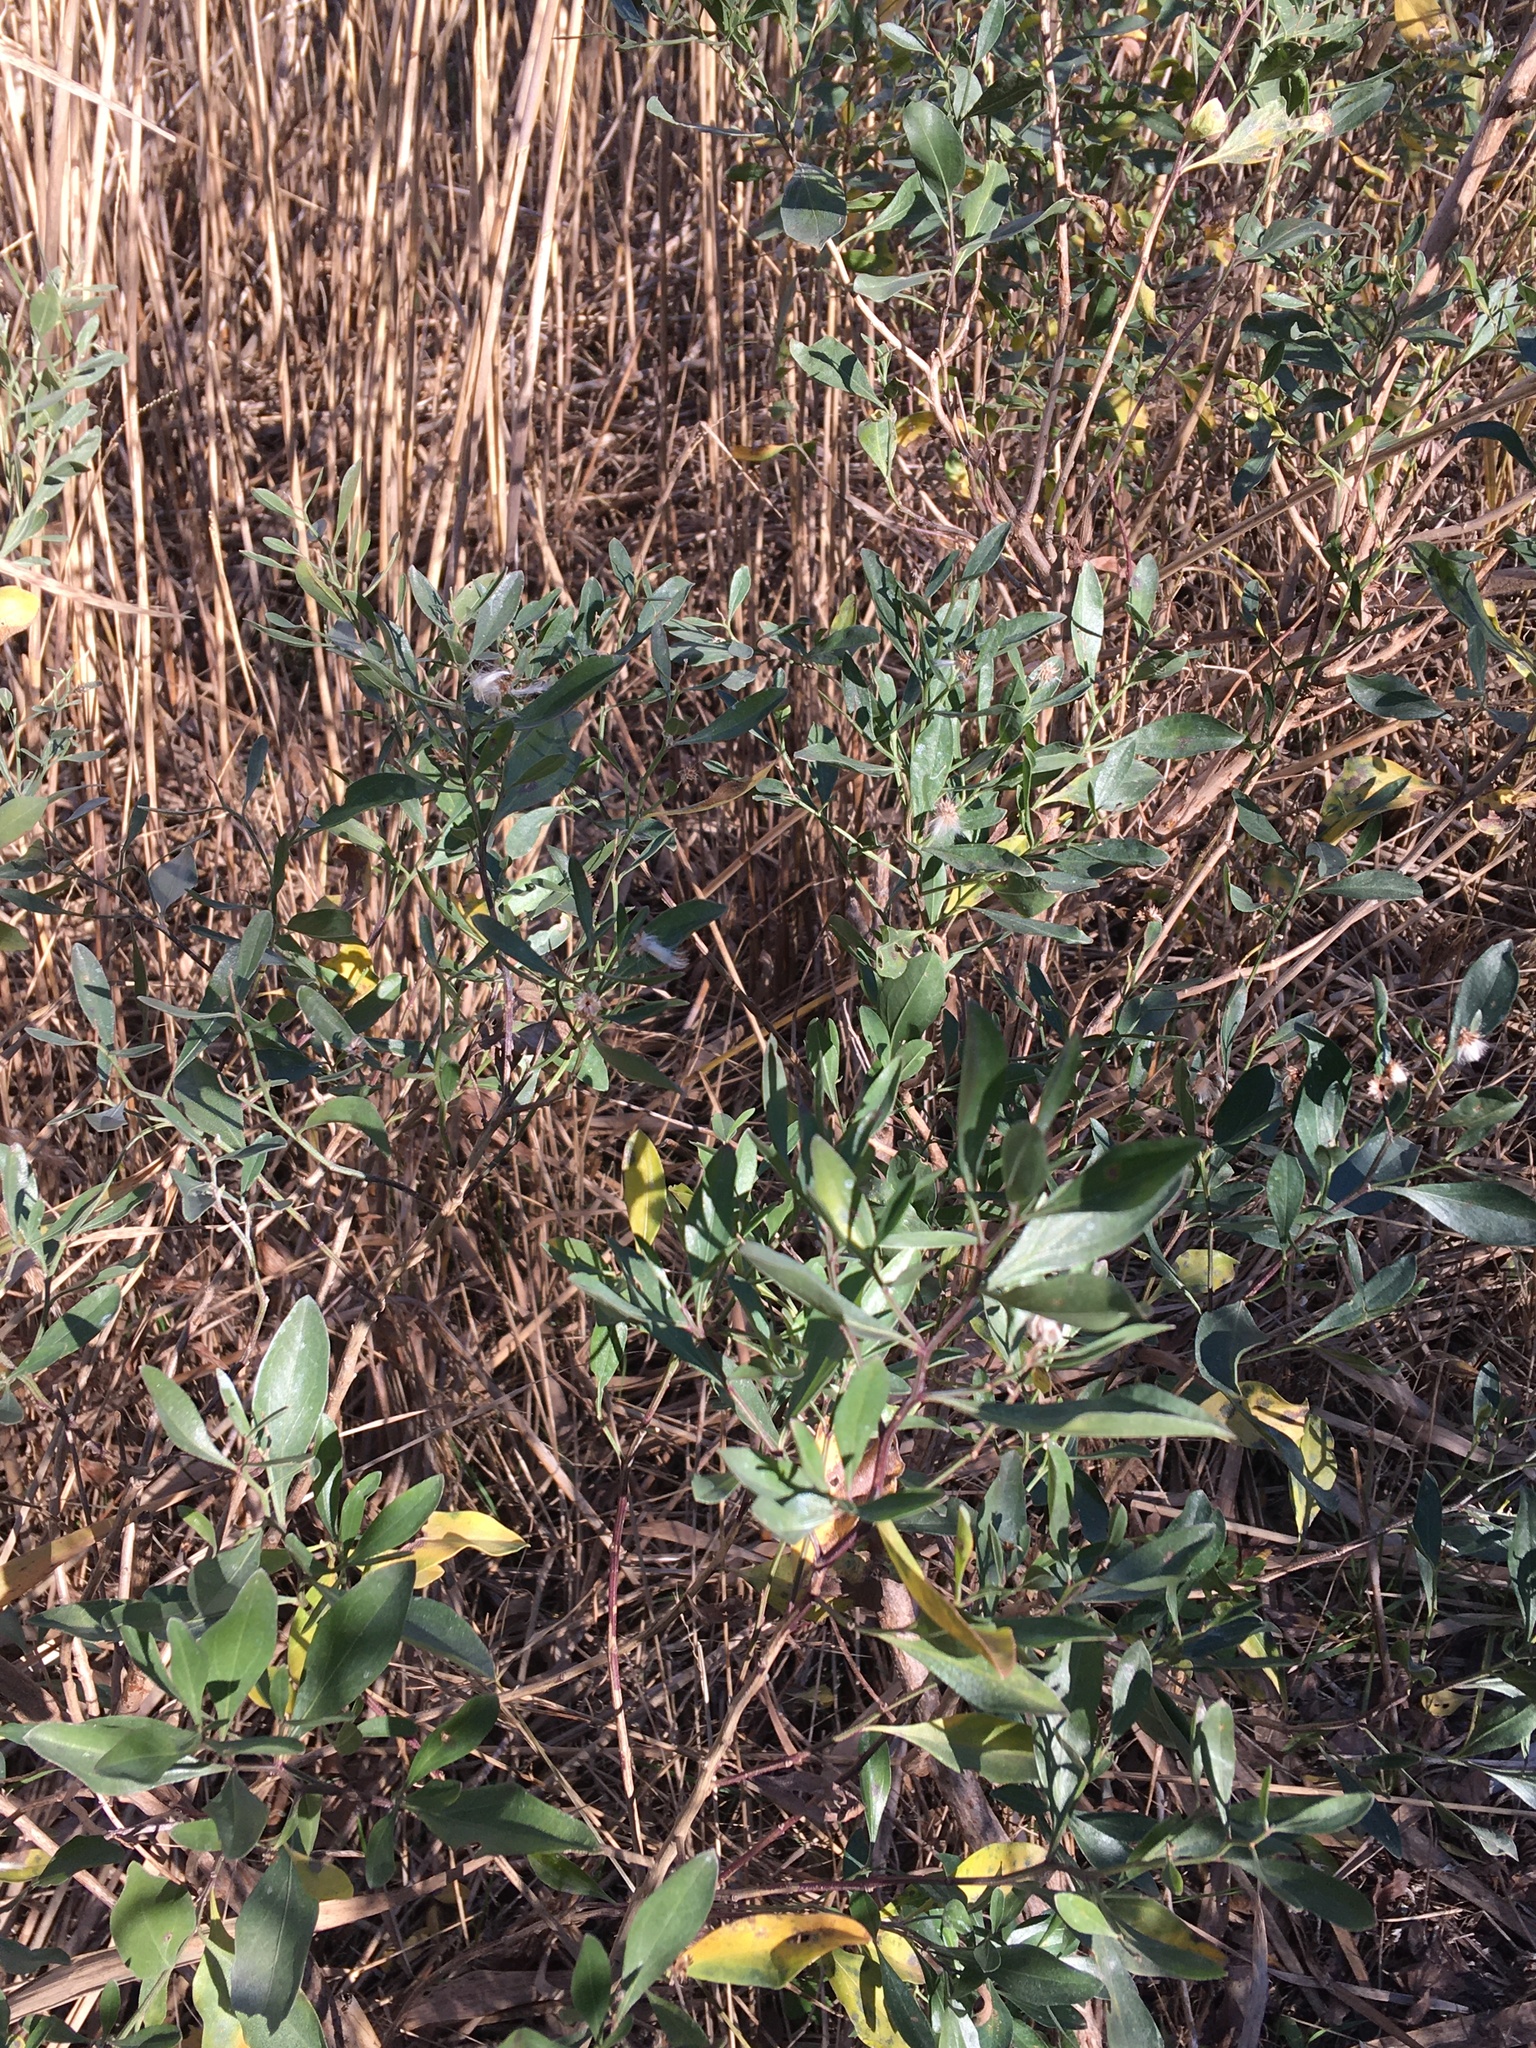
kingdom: Plantae
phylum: Tracheophyta
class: Magnoliopsida
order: Asterales
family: Asteraceae
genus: Baccharis
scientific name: Baccharis halimifolia
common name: Eastern baccharis
